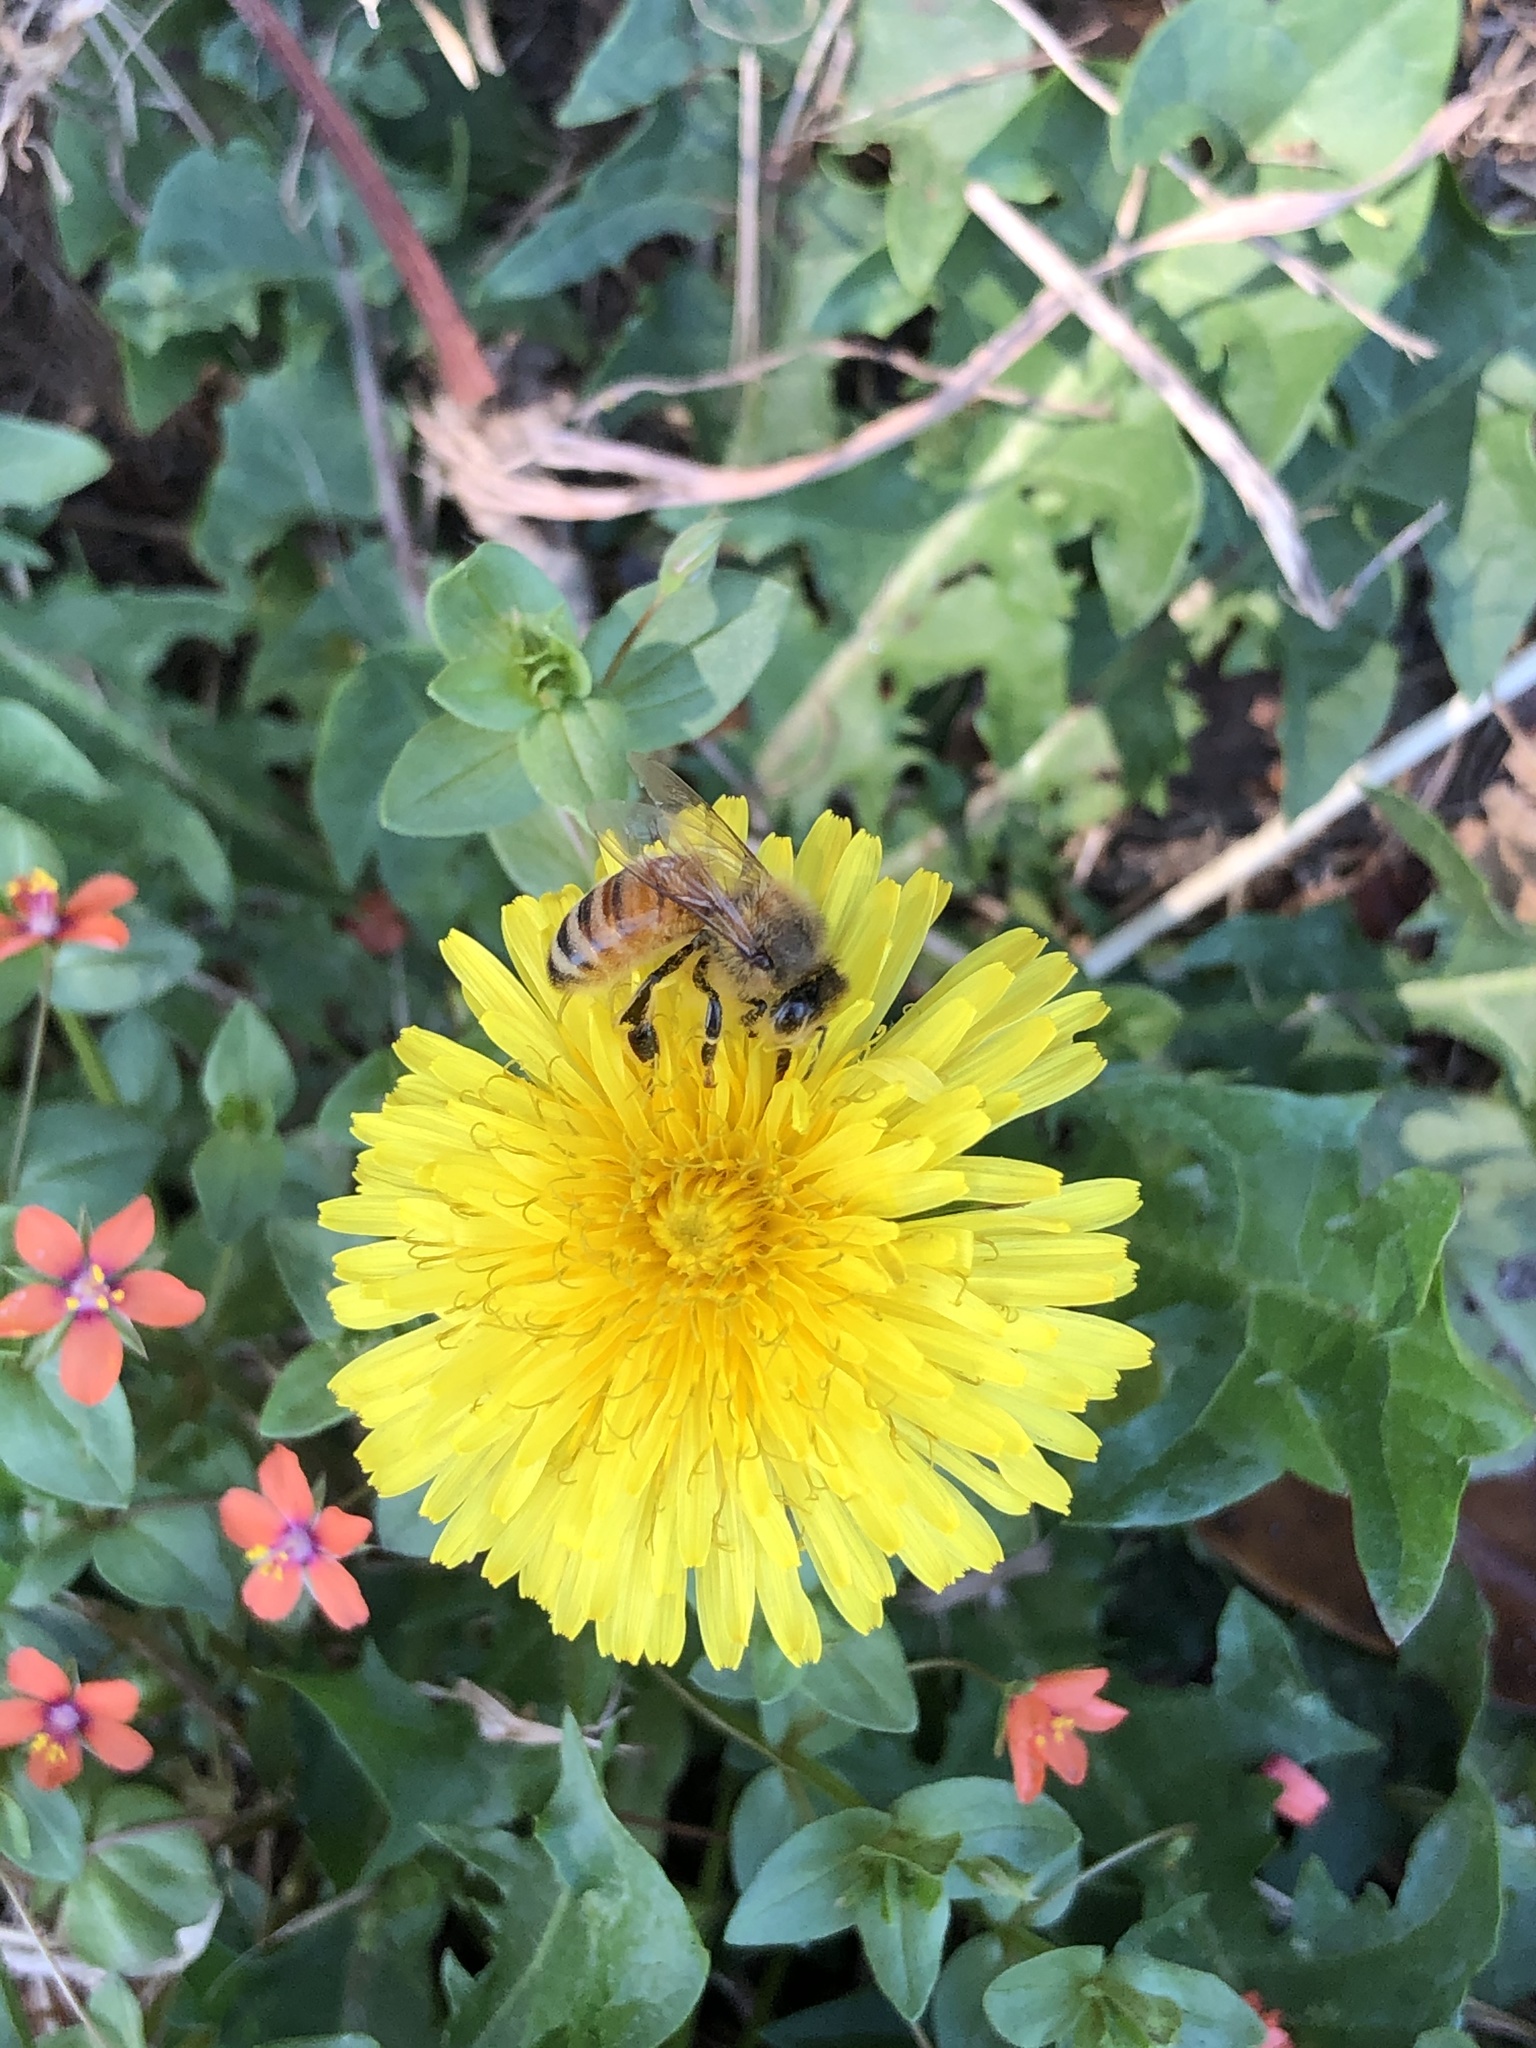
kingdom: Animalia
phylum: Arthropoda
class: Insecta
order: Hymenoptera
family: Apidae
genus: Apis
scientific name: Apis mellifera
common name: Honey bee
